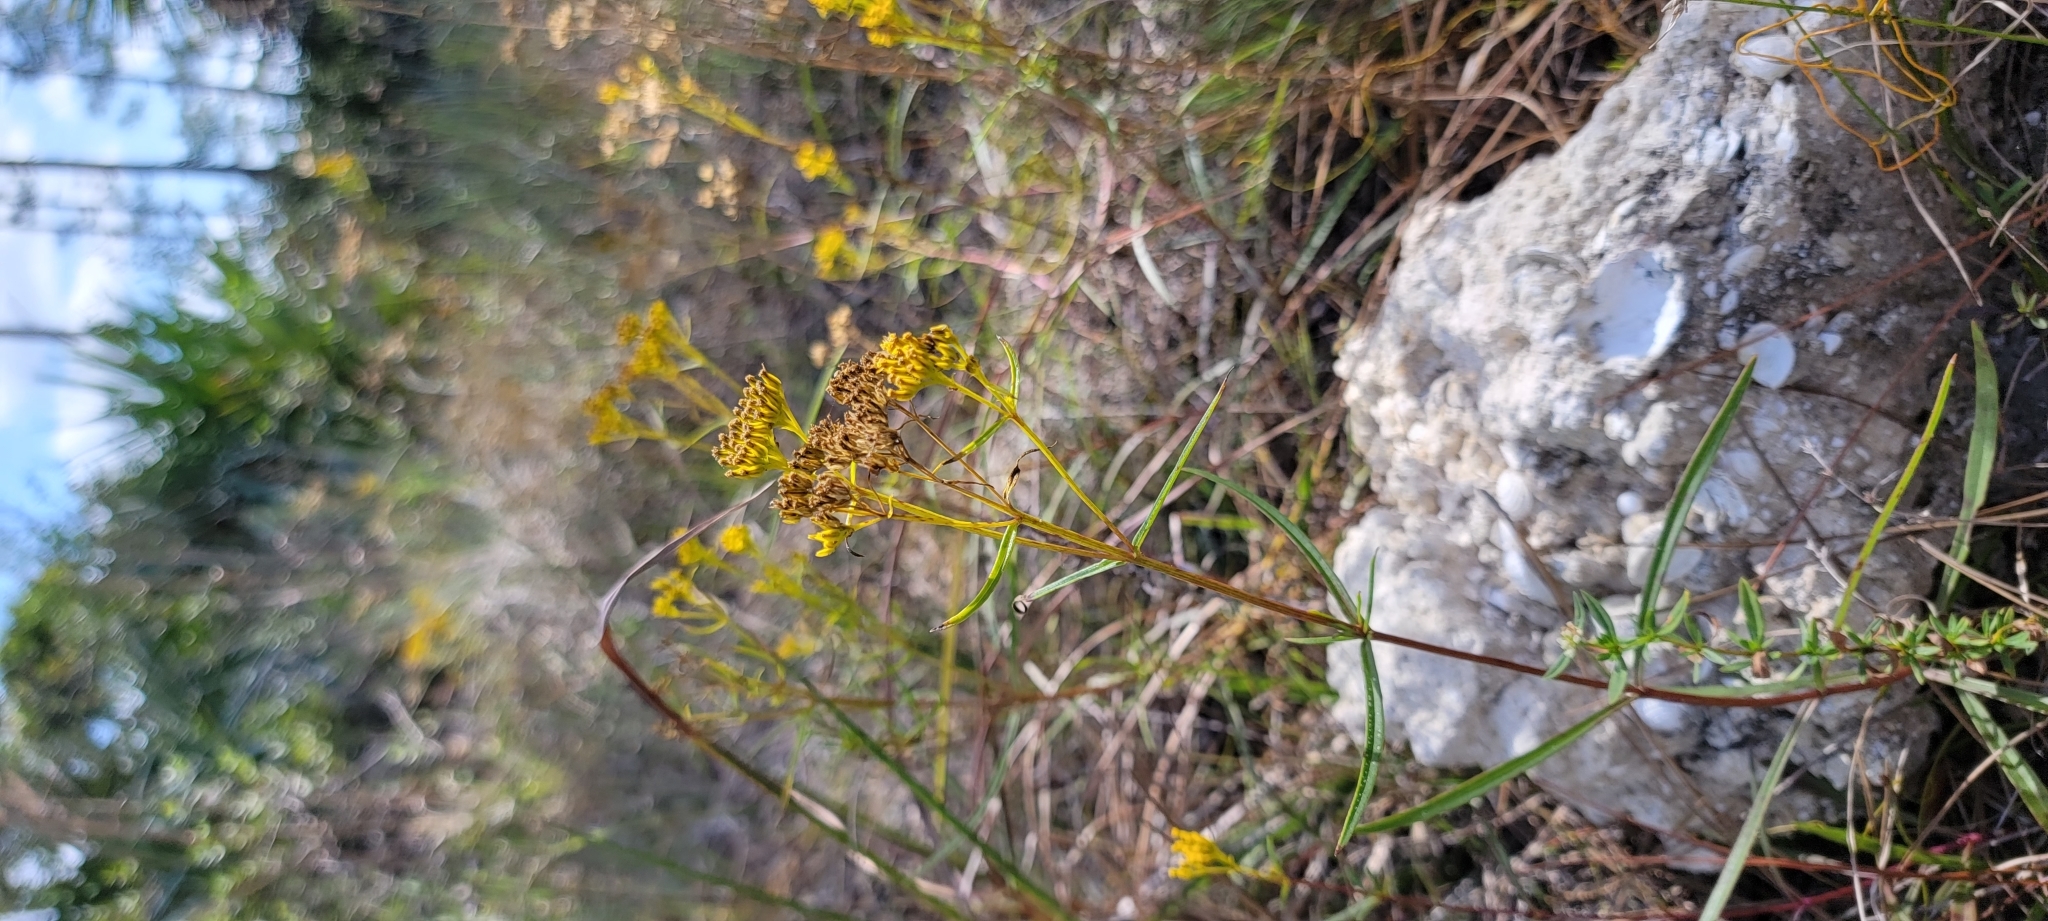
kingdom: Plantae
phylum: Tracheophyta
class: Magnoliopsida
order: Asterales
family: Asteraceae
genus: Flaveria
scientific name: Flaveria linearis
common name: Yellowtop
